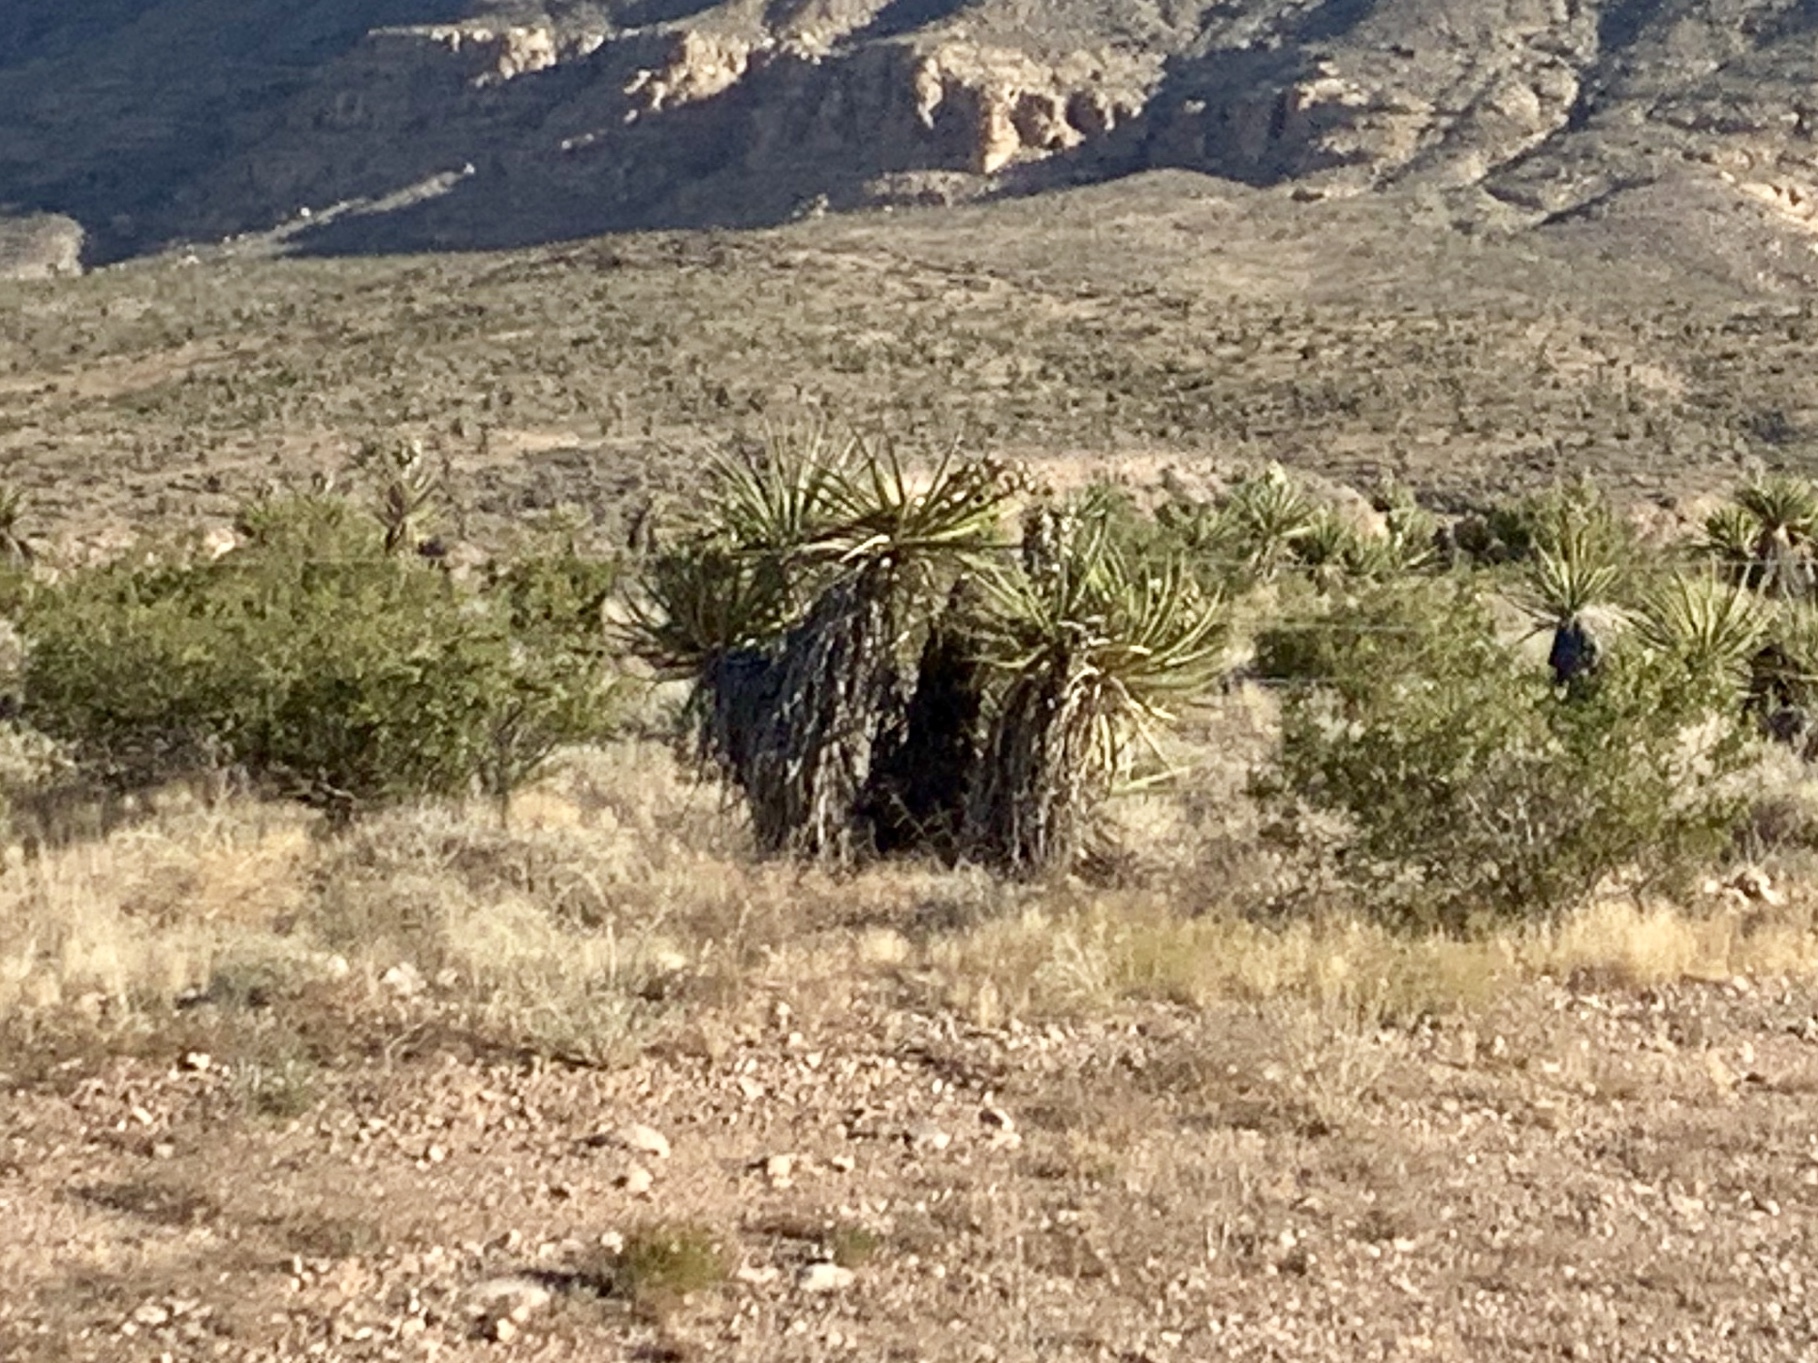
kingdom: Plantae
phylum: Tracheophyta
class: Liliopsida
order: Asparagales
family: Asparagaceae
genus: Yucca
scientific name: Yucca schidigera
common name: Mojave yucca
